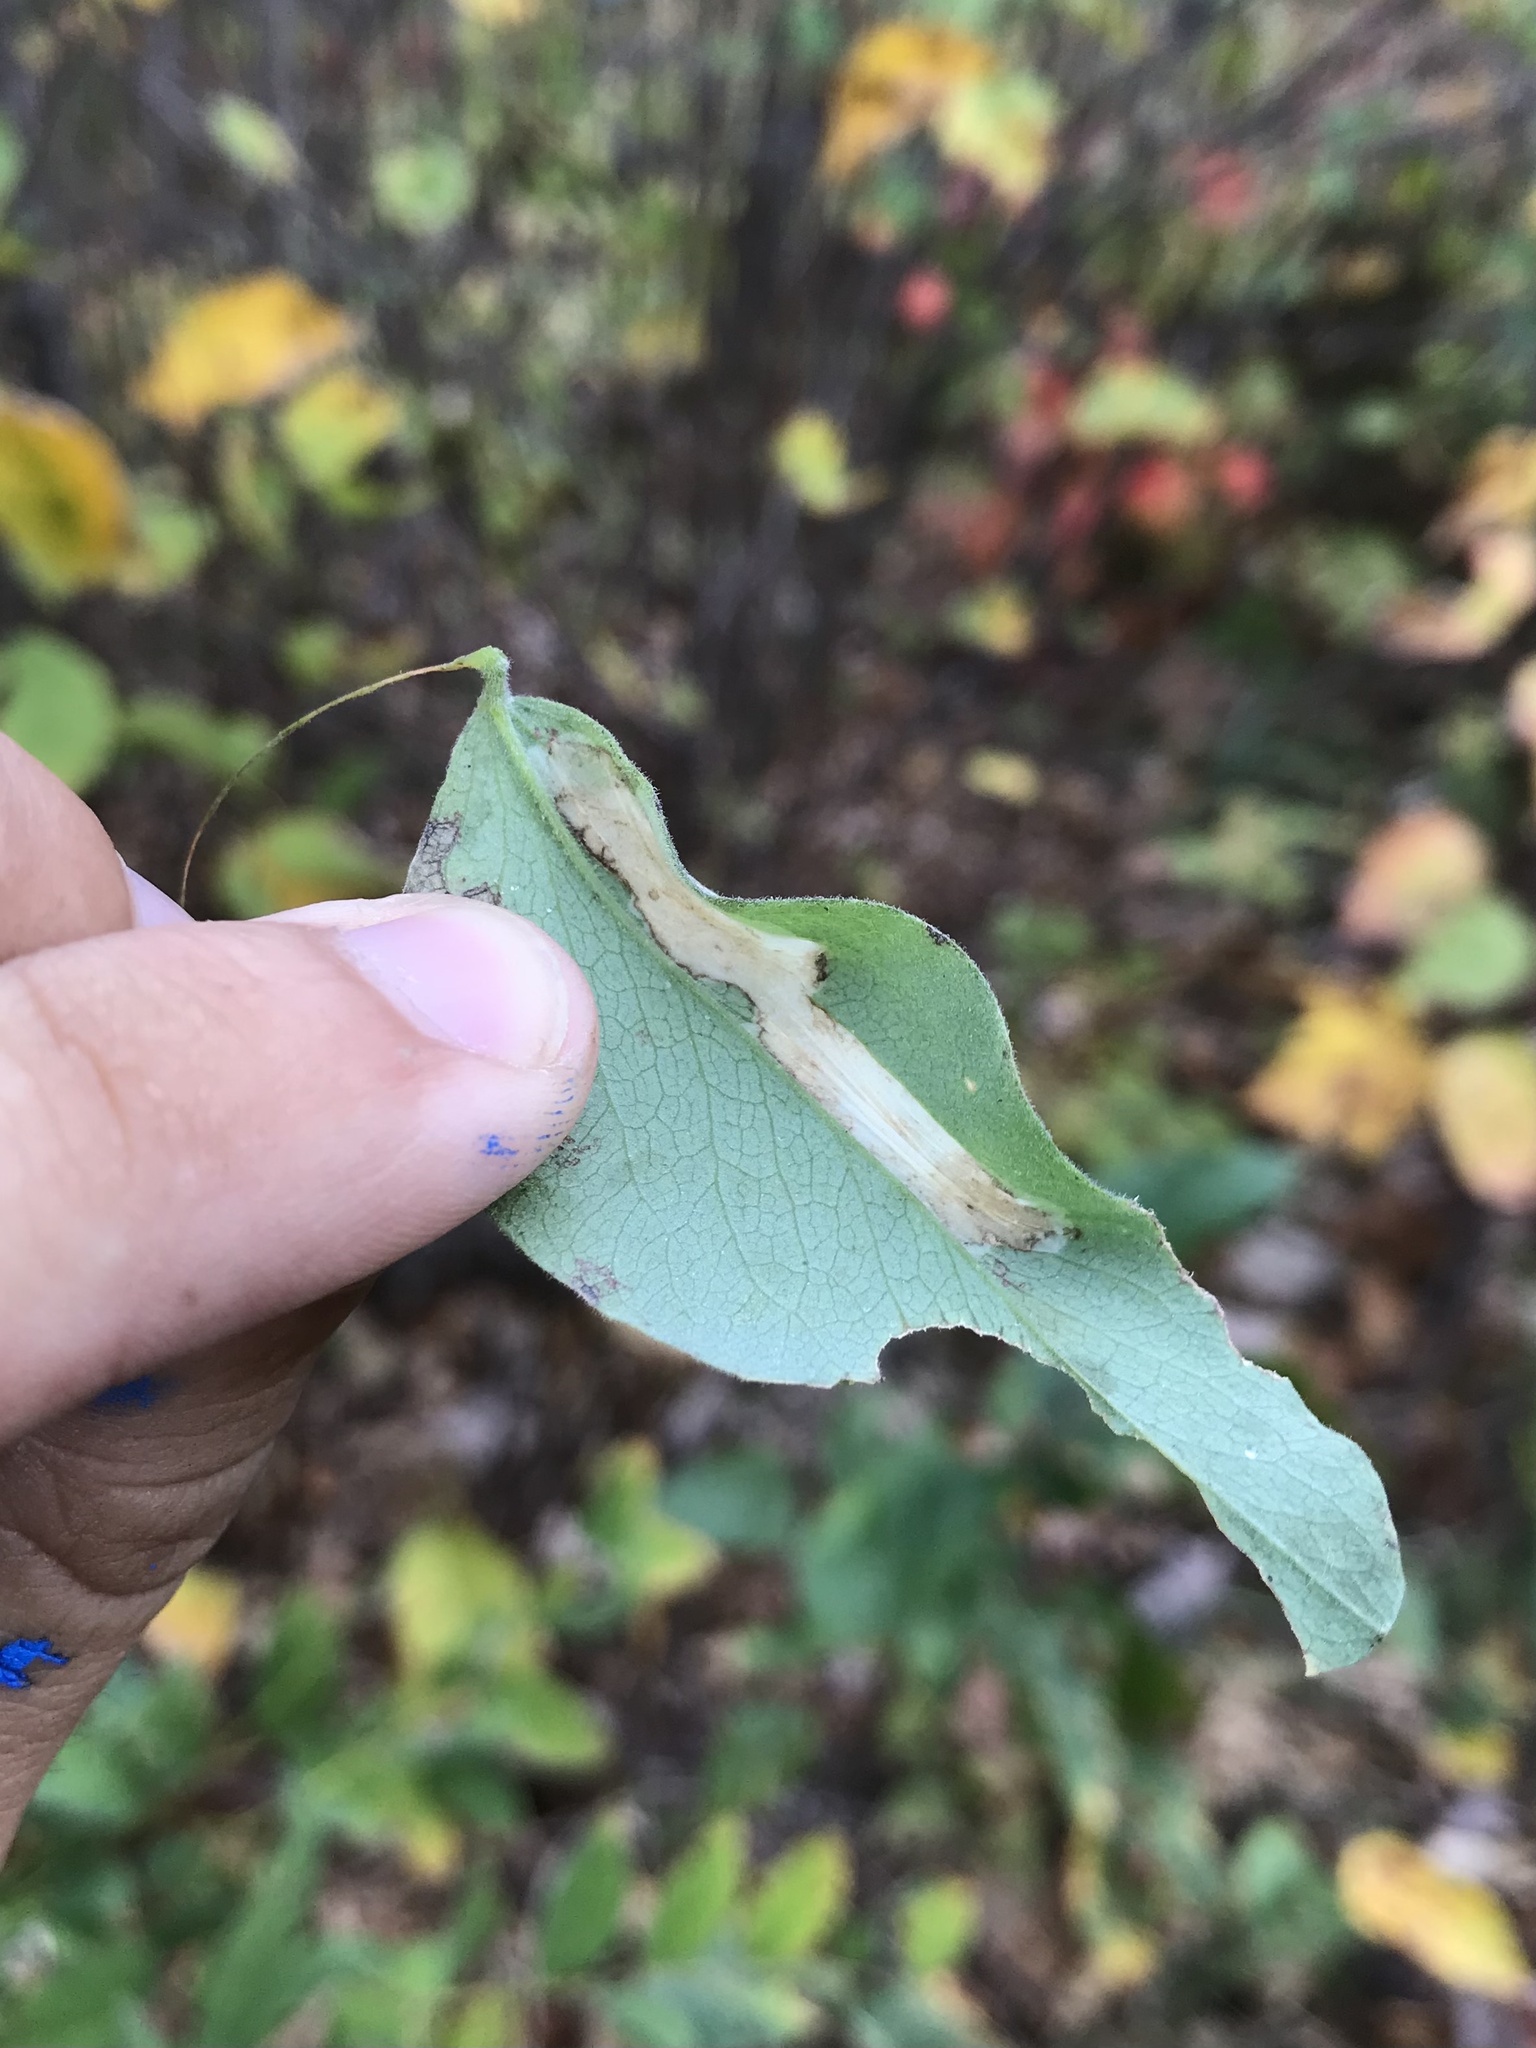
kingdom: Animalia
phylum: Arthropoda
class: Insecta
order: Lepidoptera
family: Gracillariidae
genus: Protolithocolletis
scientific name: Protolithocolletis lathyri
